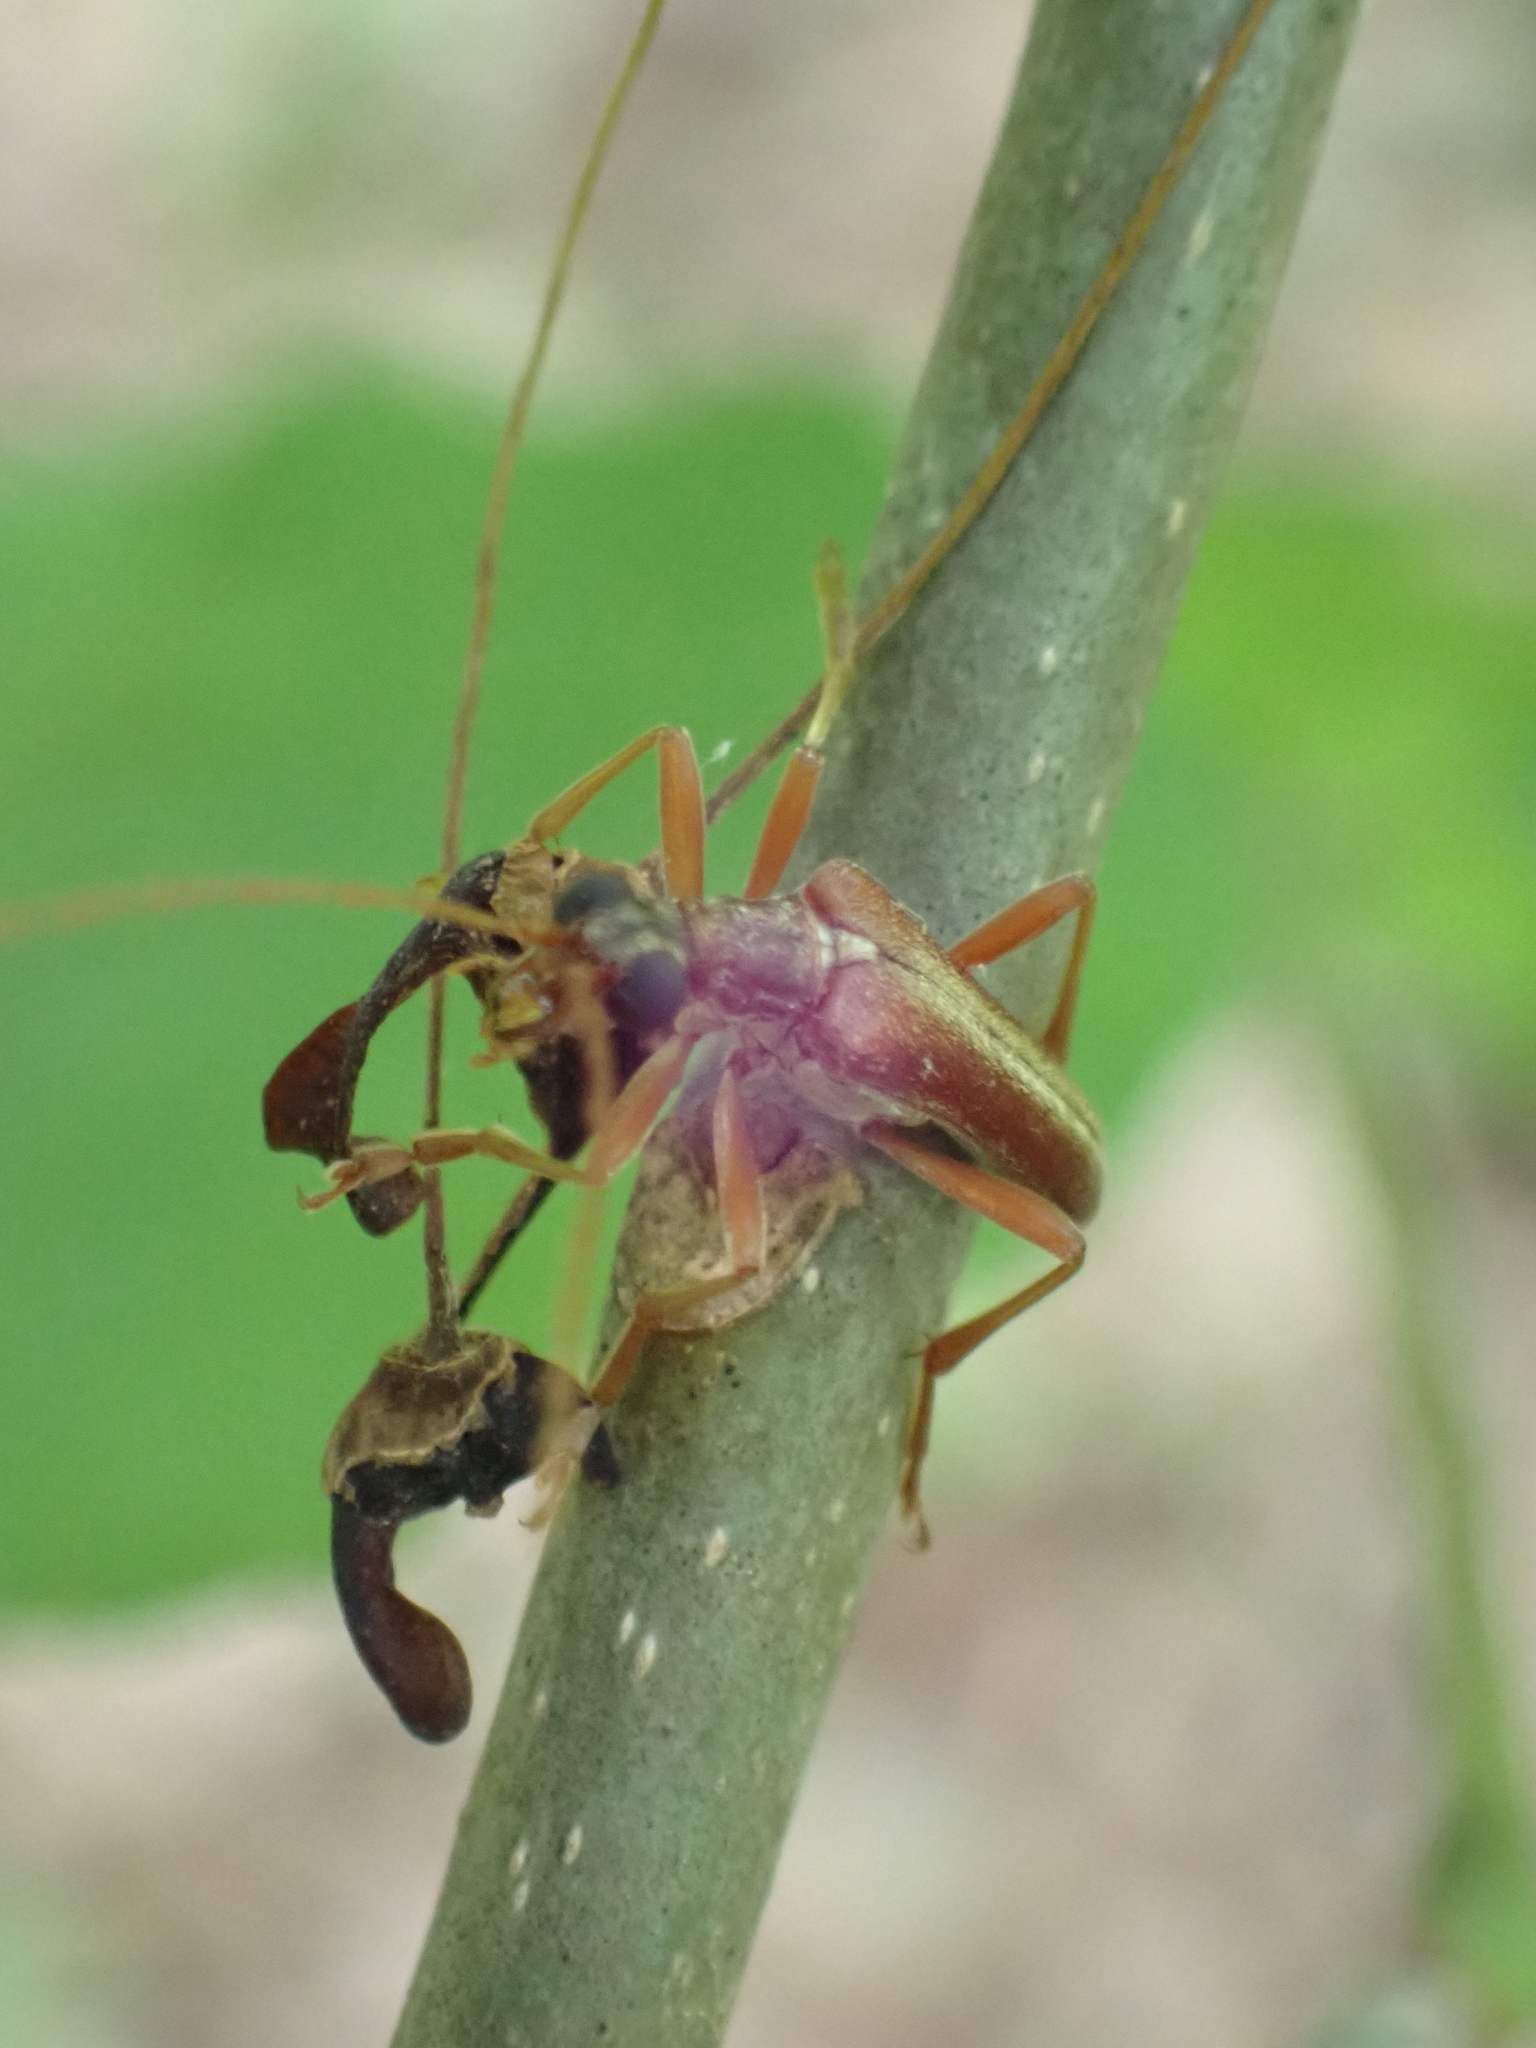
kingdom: Animalia
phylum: Arthropoda
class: Insecta
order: Coleoptera
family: Cerambycidae
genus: Stenocorus
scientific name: Stenocorus cinnamopterus
